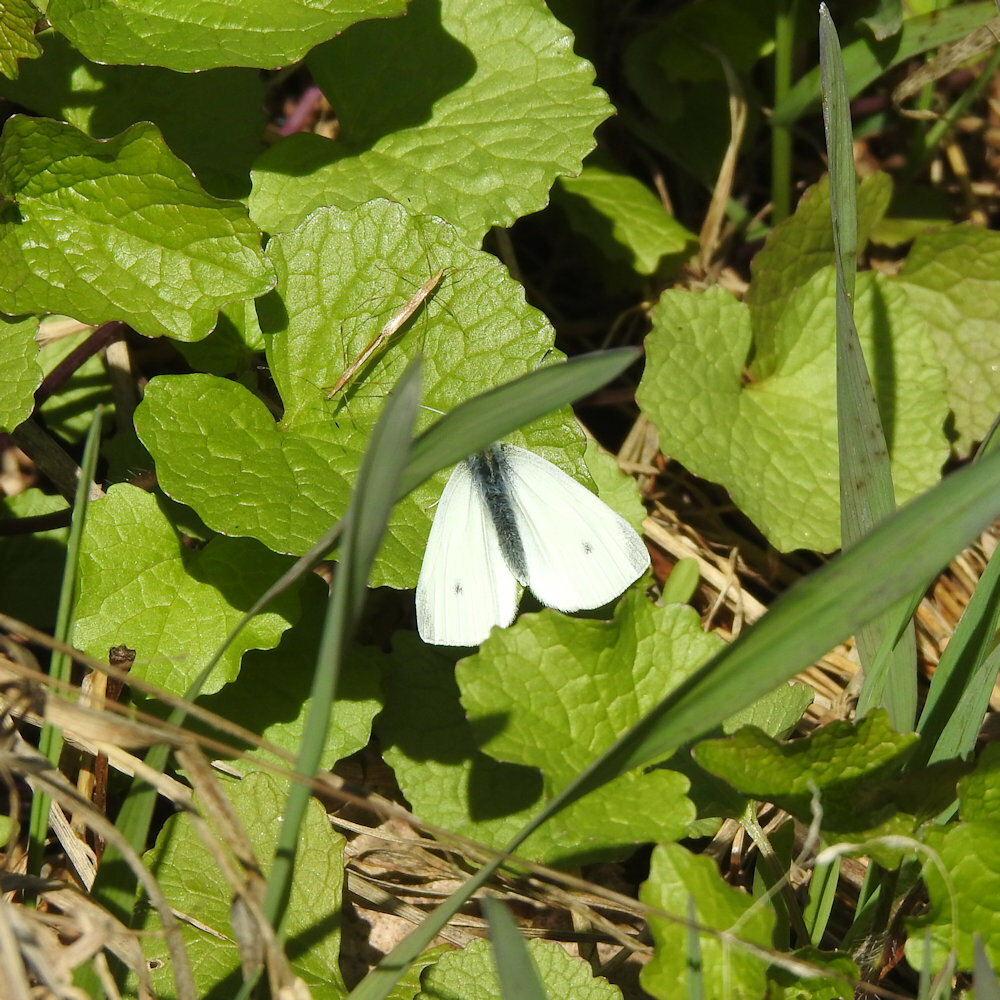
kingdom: Animalia
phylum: Arthropoda
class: Insecta
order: Lepidoptera
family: Pieridae
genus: Pieris
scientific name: Pieris rapae
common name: Small white
